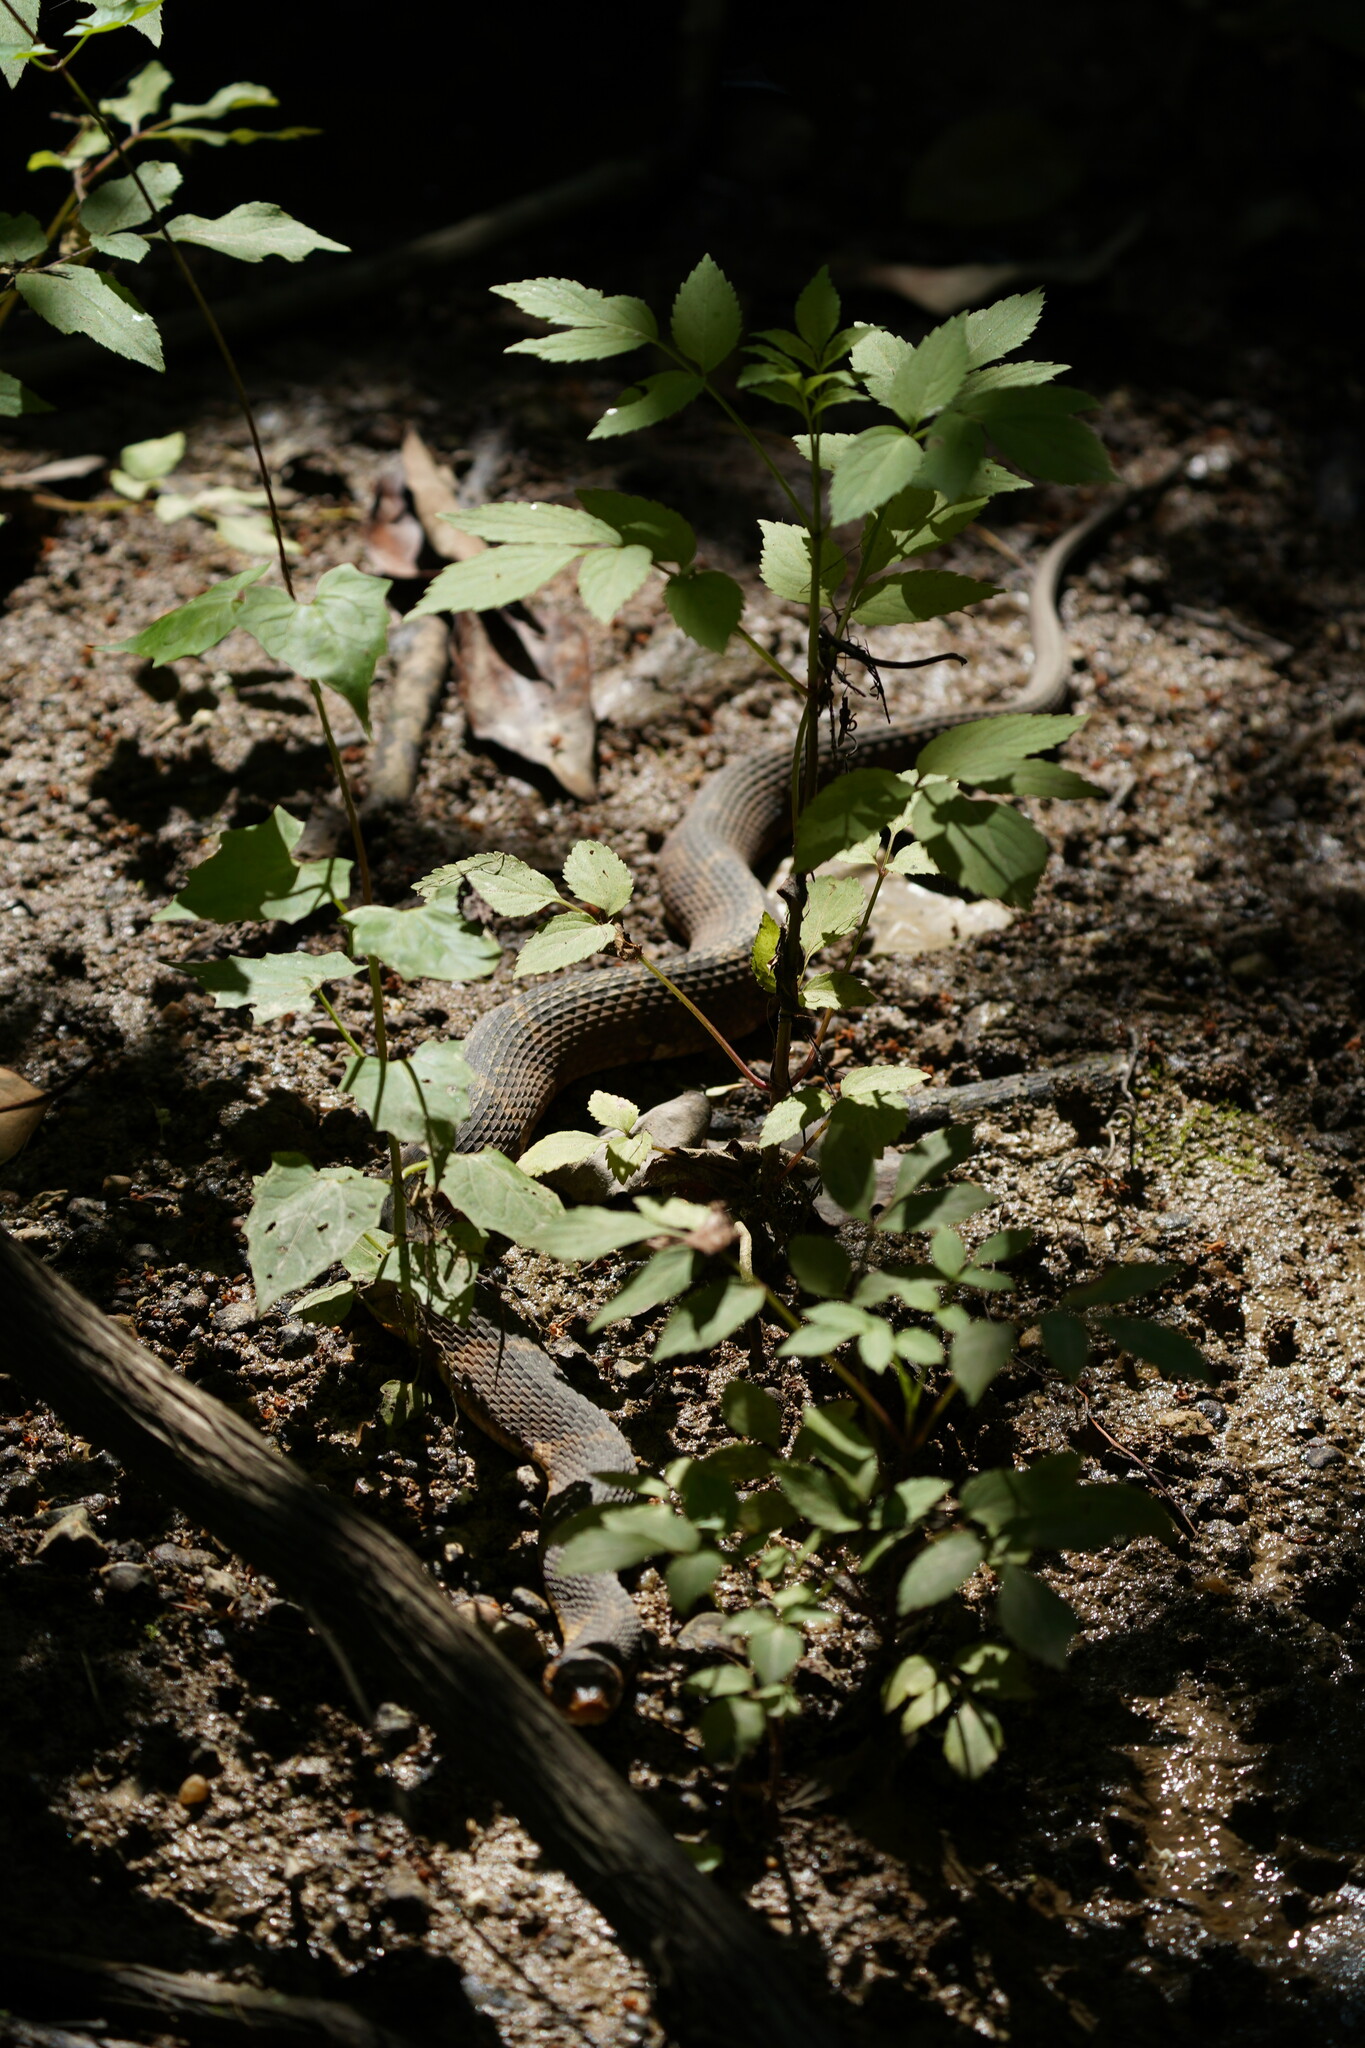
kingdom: Animalia
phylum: Chordata
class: Squamata
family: Colubridae
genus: Nerodia
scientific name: Nerodia fasciata
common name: Southern water snake
